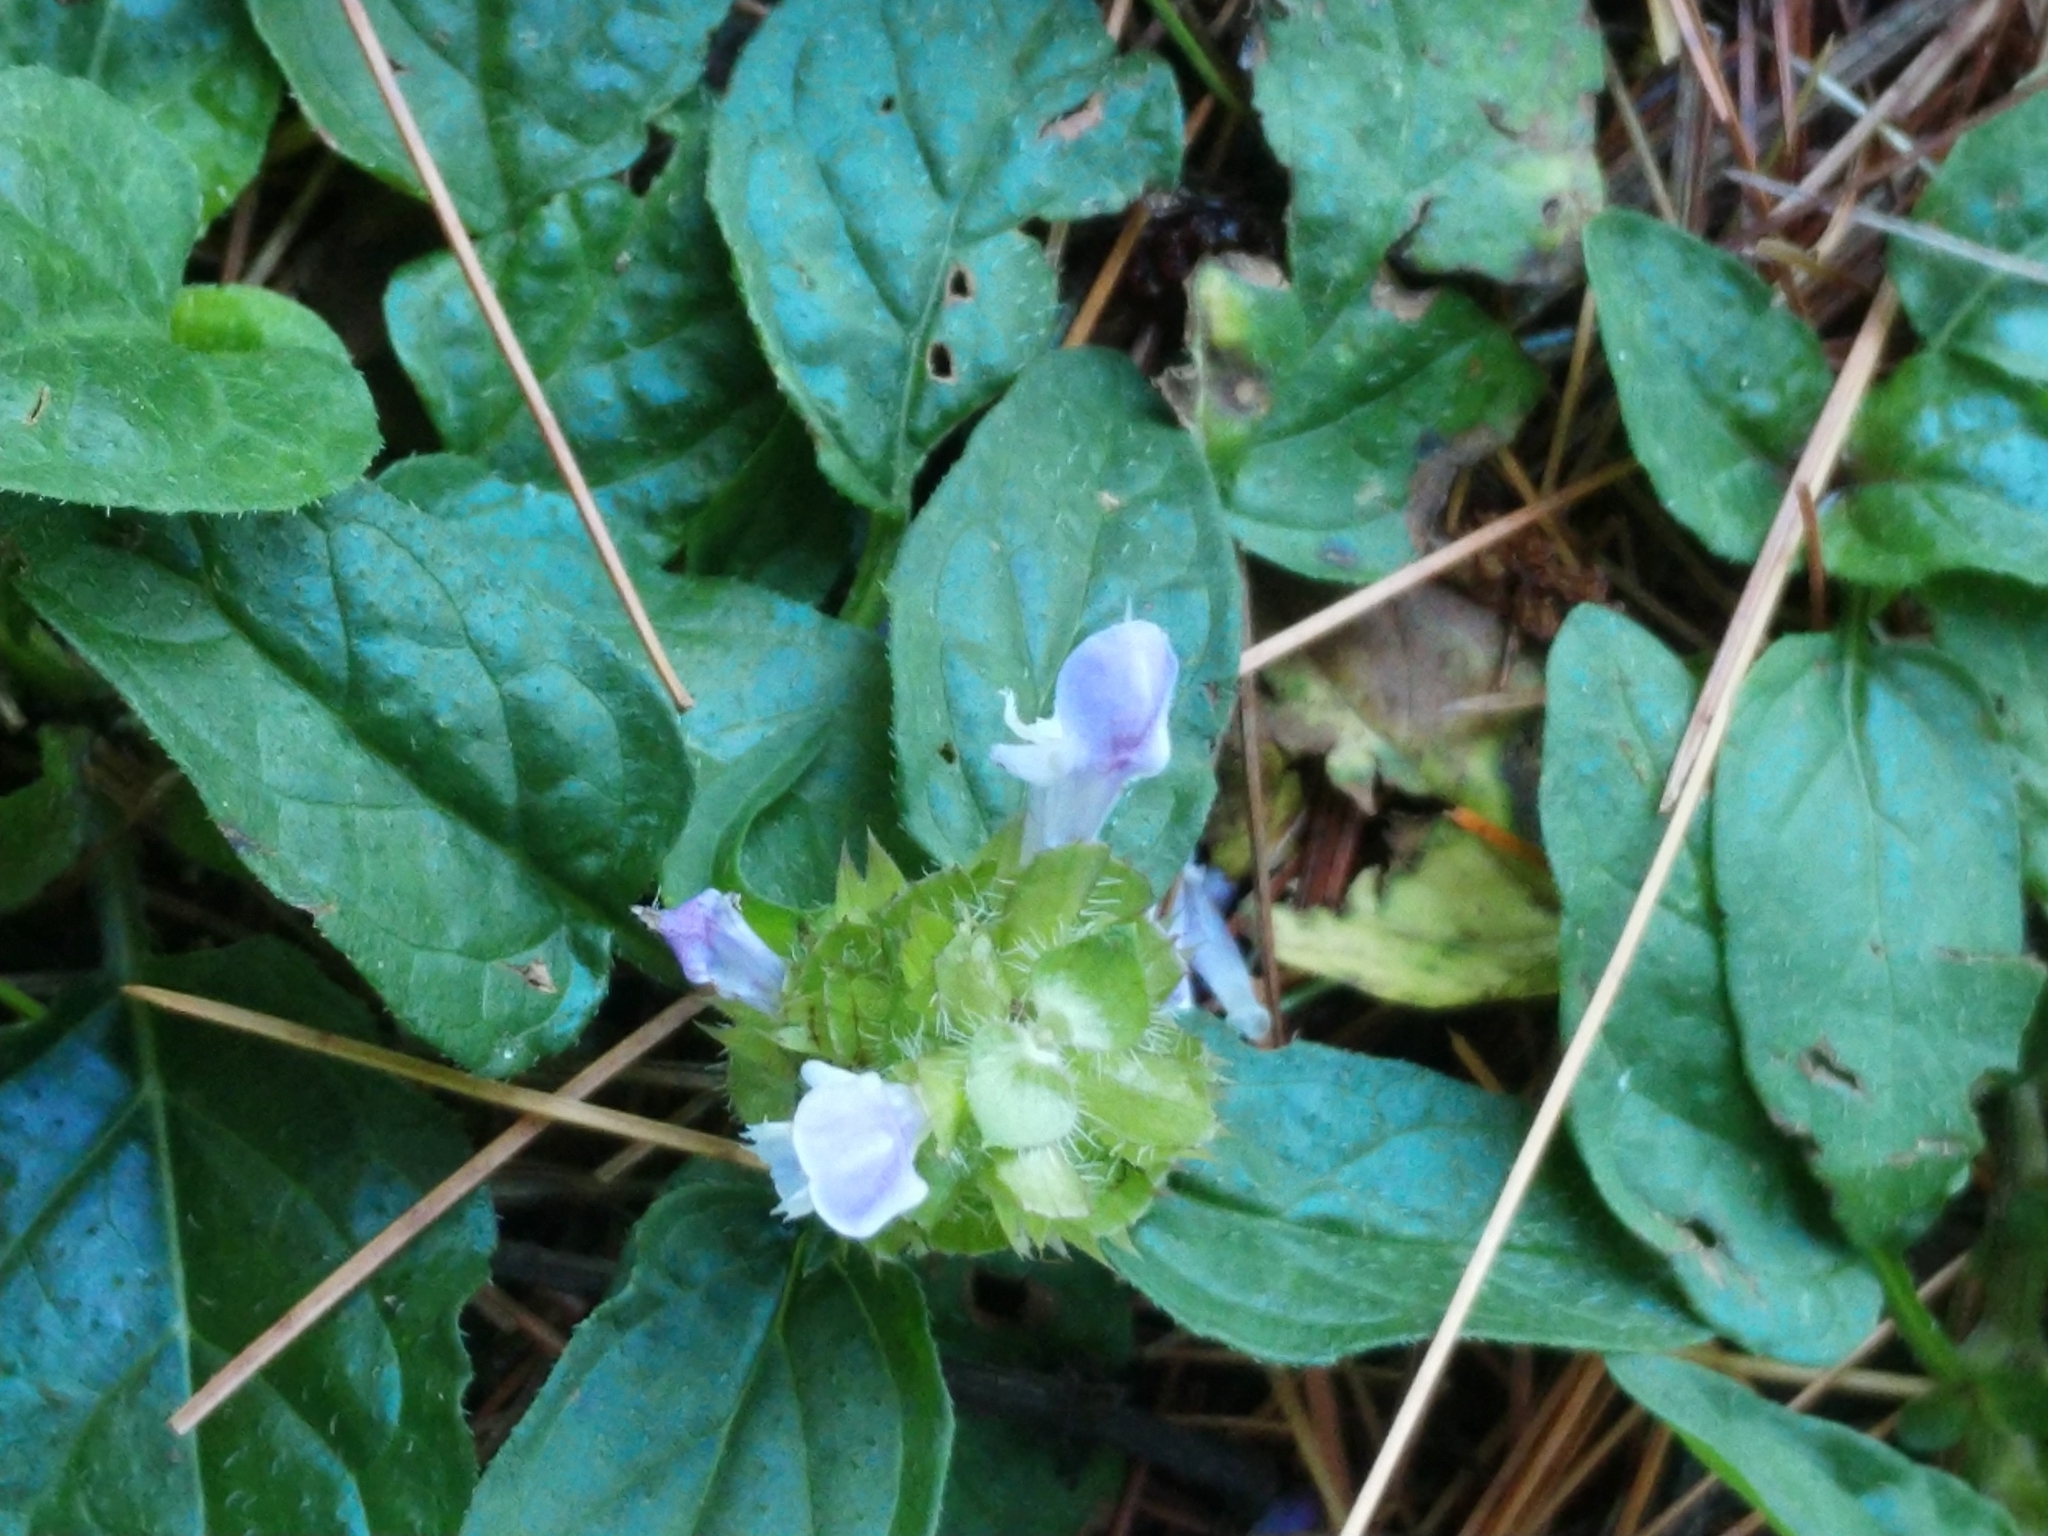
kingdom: Plantae
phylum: Tracheophyta
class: Magnoliopsida
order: Lamiales
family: Lamiaceae
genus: Prunella
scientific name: Prunella vulgaris
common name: Heal-all
